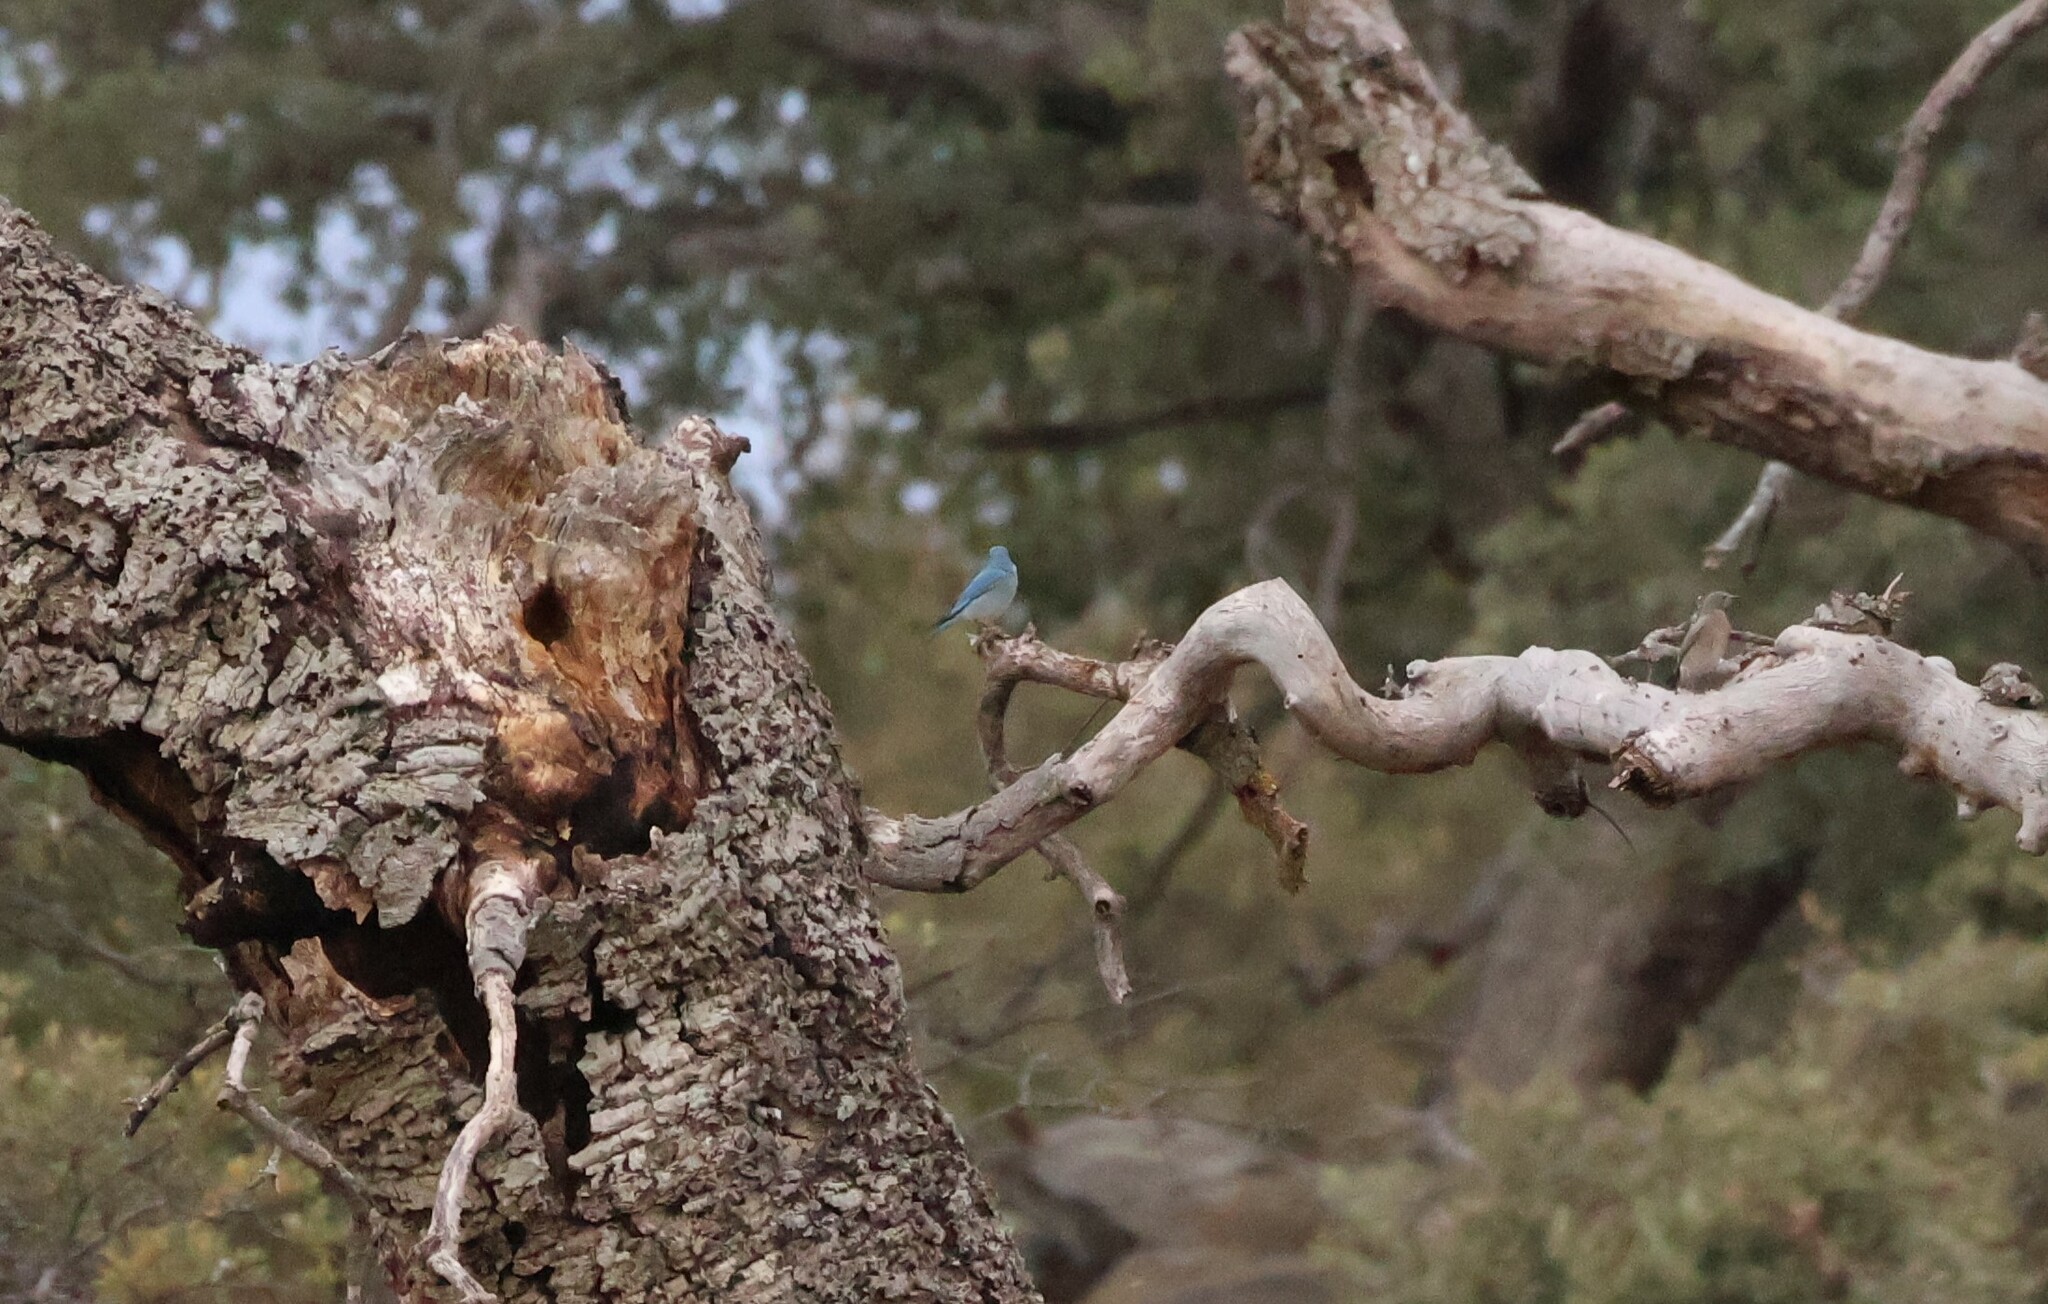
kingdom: Animalia
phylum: Chordata
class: Aves
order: Passeriformes
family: Turdidae
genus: Sialia
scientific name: Sialia currucoides
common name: Mountain bluebird
